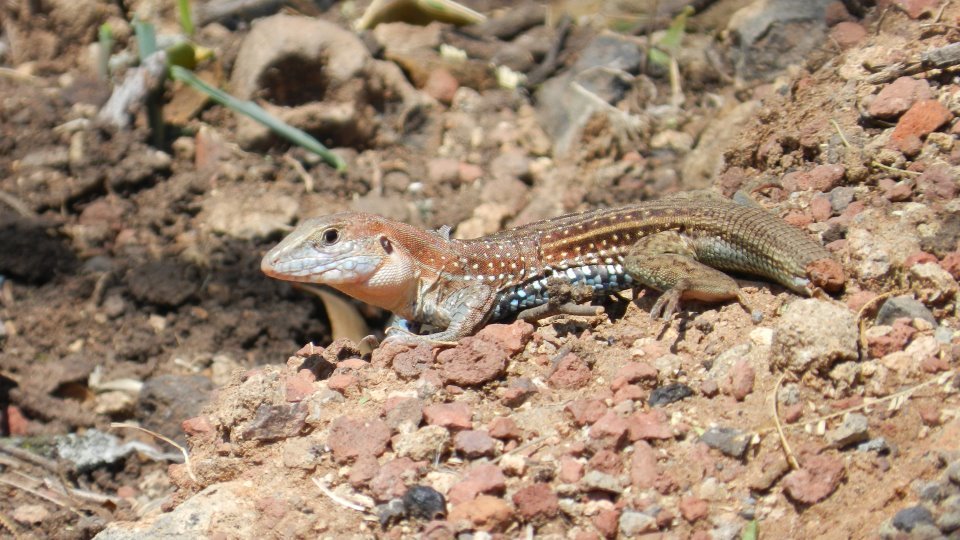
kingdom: Animalia
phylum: Chordata
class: Squamata
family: Teiidae
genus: Aspidoscelis
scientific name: Aspidoscelis gularis
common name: Eastern spotted whiptail
